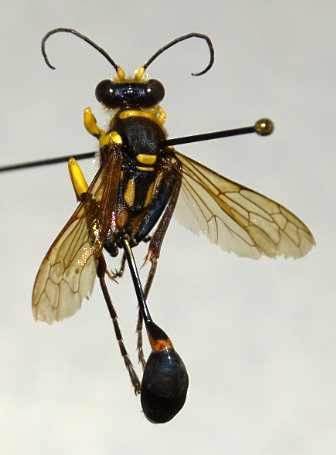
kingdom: Animalia
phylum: Arthropoda
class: Insecta
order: Hymenoptera
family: Sphecidae
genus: Sceliphron
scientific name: Sceliphron fistularium
